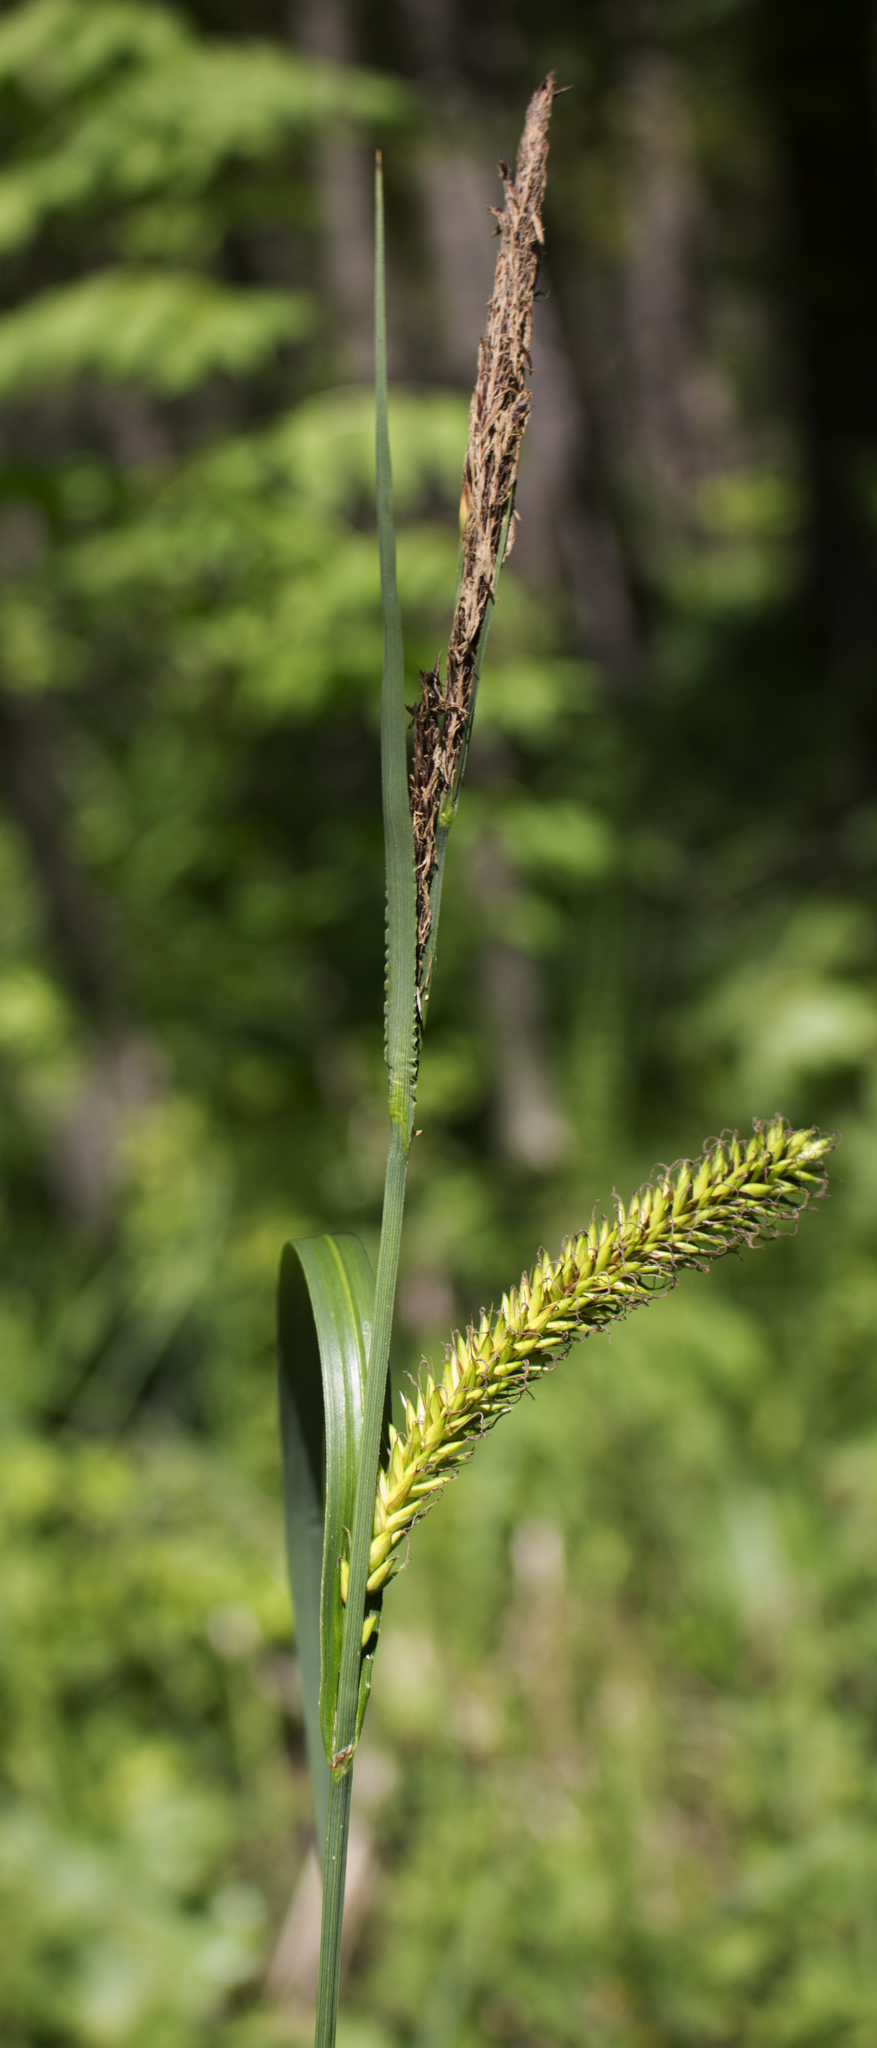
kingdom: Plantae
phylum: Tracheophyta
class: Liliopsida
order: Poales
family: Cyperaceae
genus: Carex
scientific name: Carex lacustris
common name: Common lake sedge
